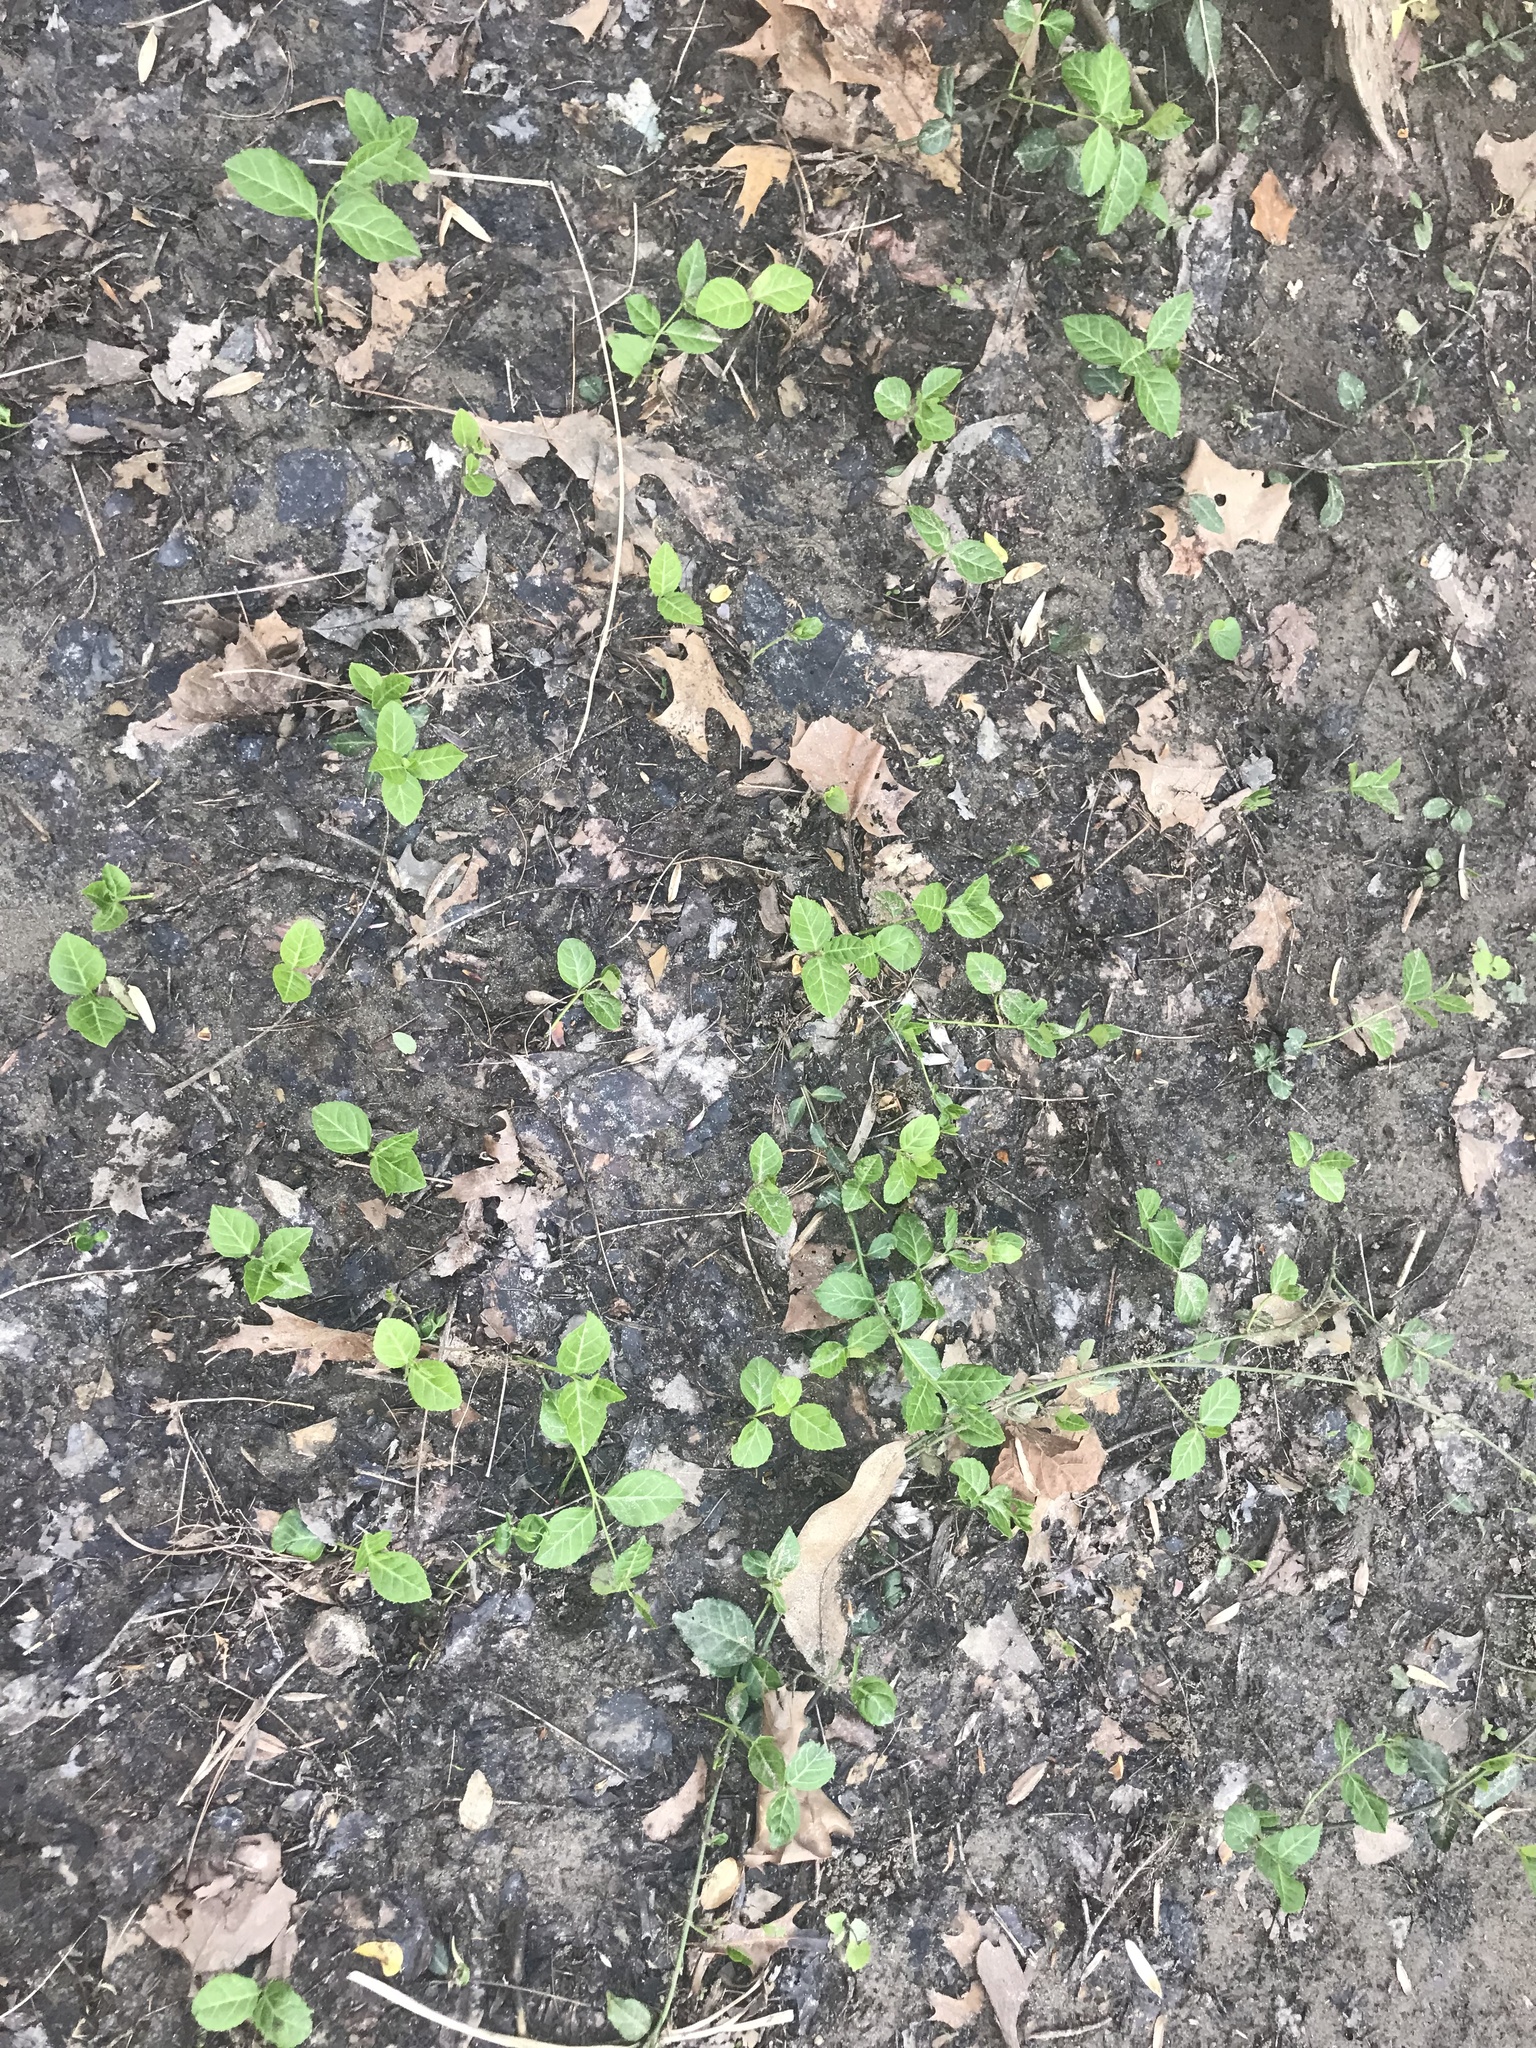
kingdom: Plantae
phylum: Tracheophyta
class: Magnoliopsida
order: Celastrales
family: Celastraceae
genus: Euonymus
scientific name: Euonymus fortunei
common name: Climbing euonymus
